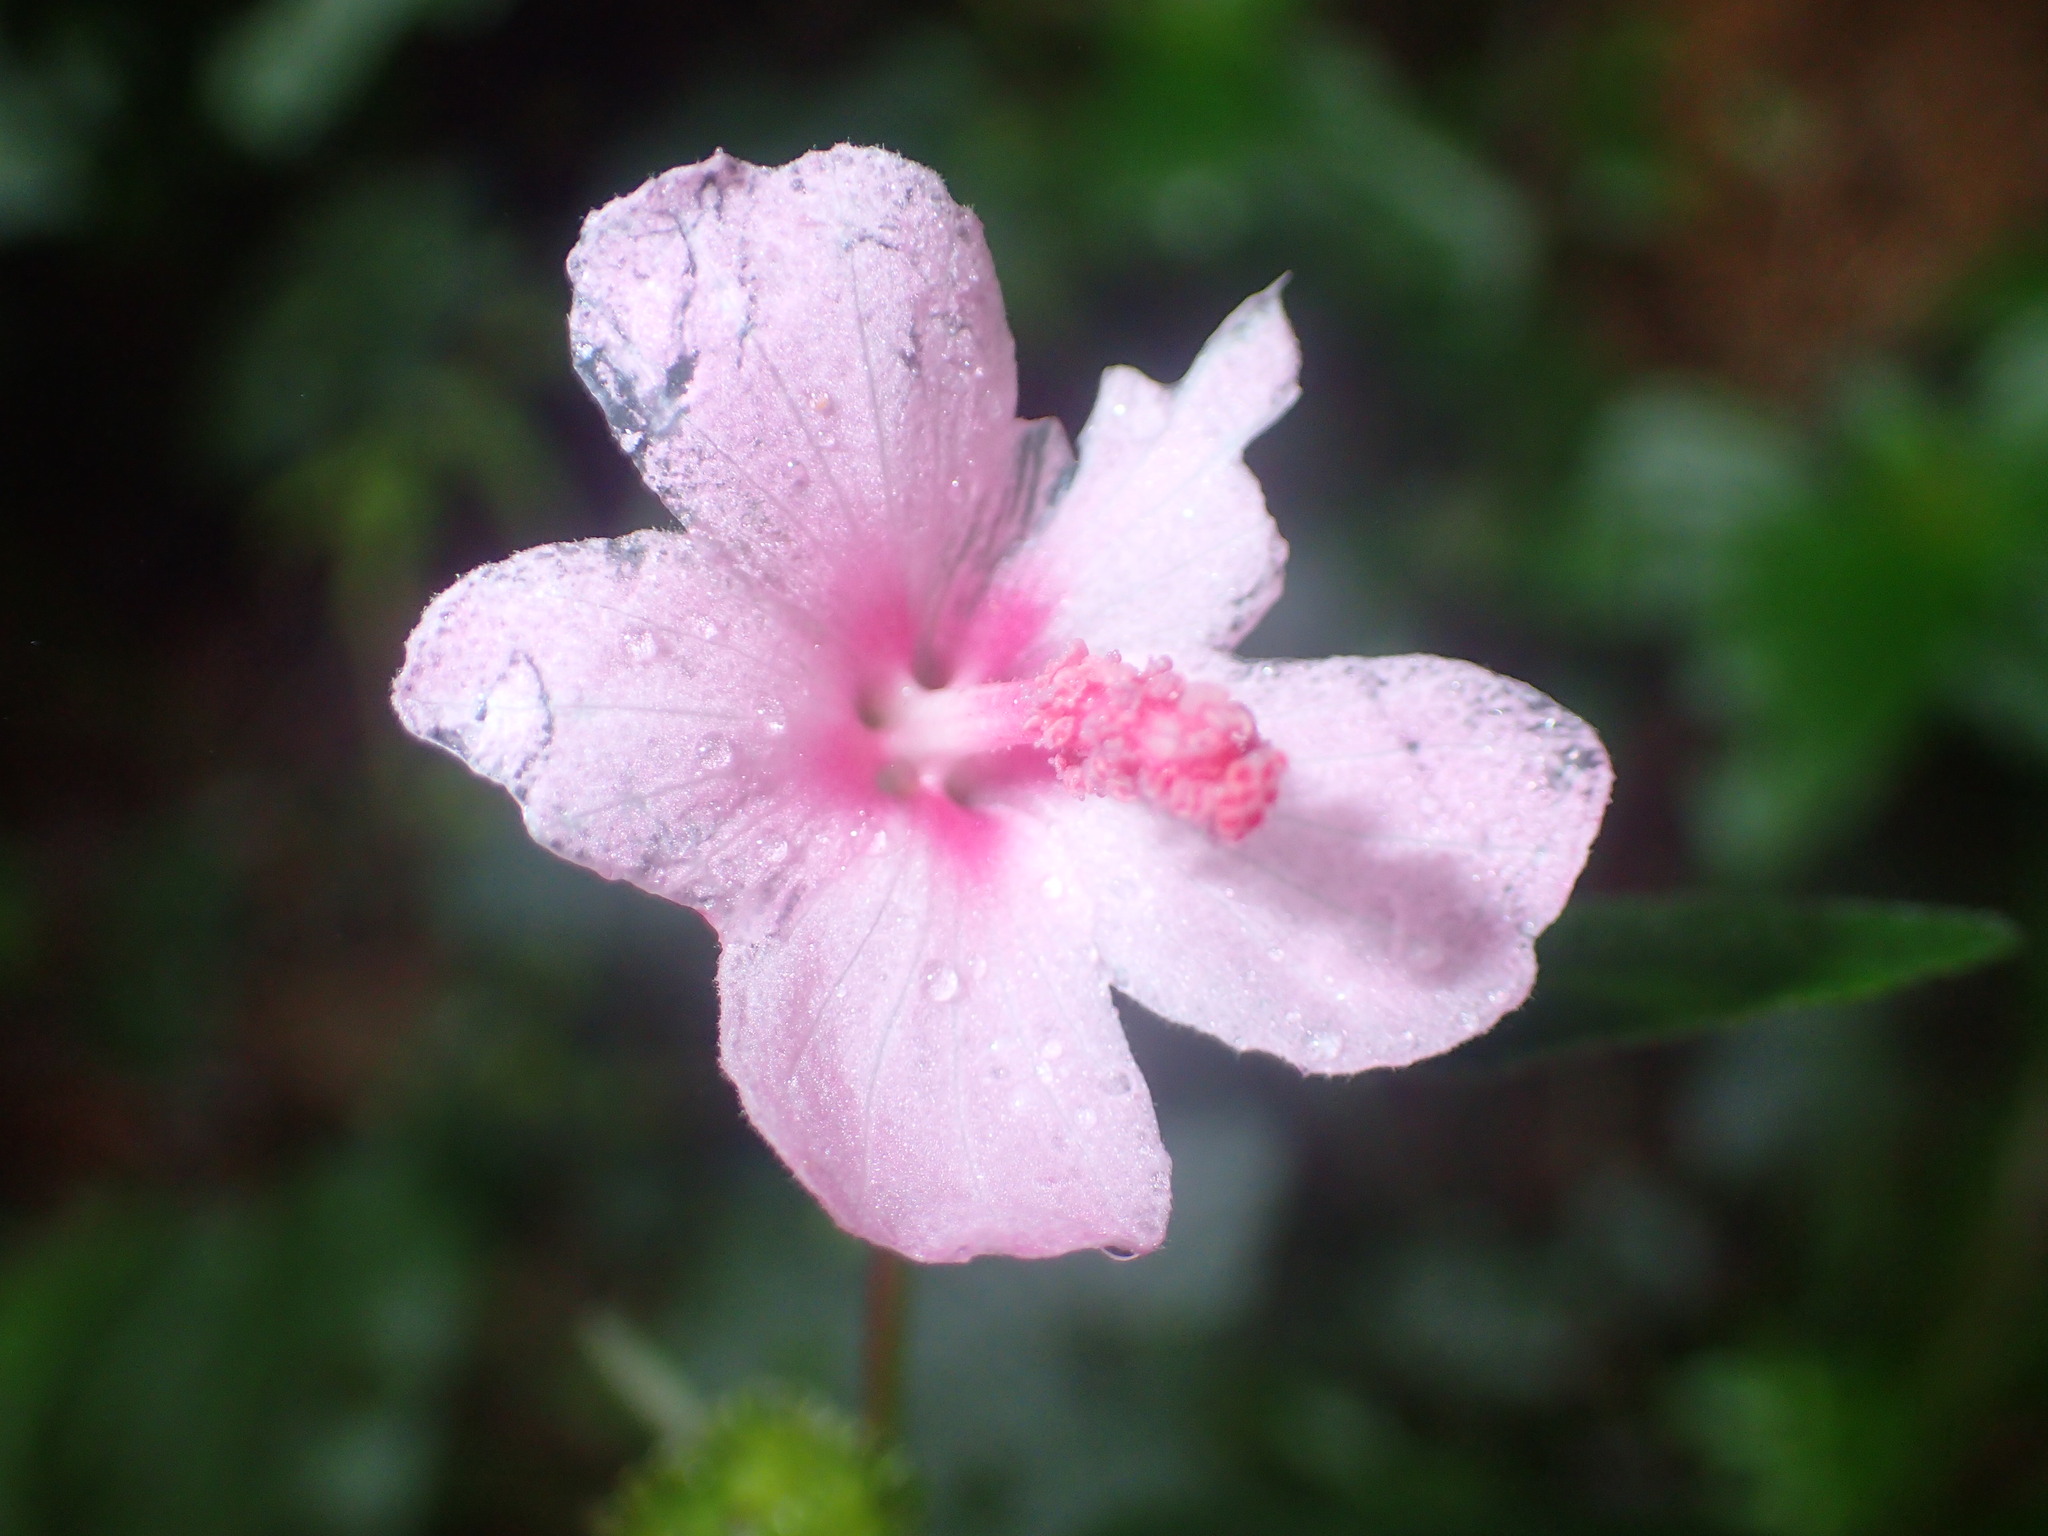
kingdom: Plantae
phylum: Tracheophyta
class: Magnoliopsida
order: Malvales
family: Malvaceae
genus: Urena
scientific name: Urena lobata
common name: Caesarweed
